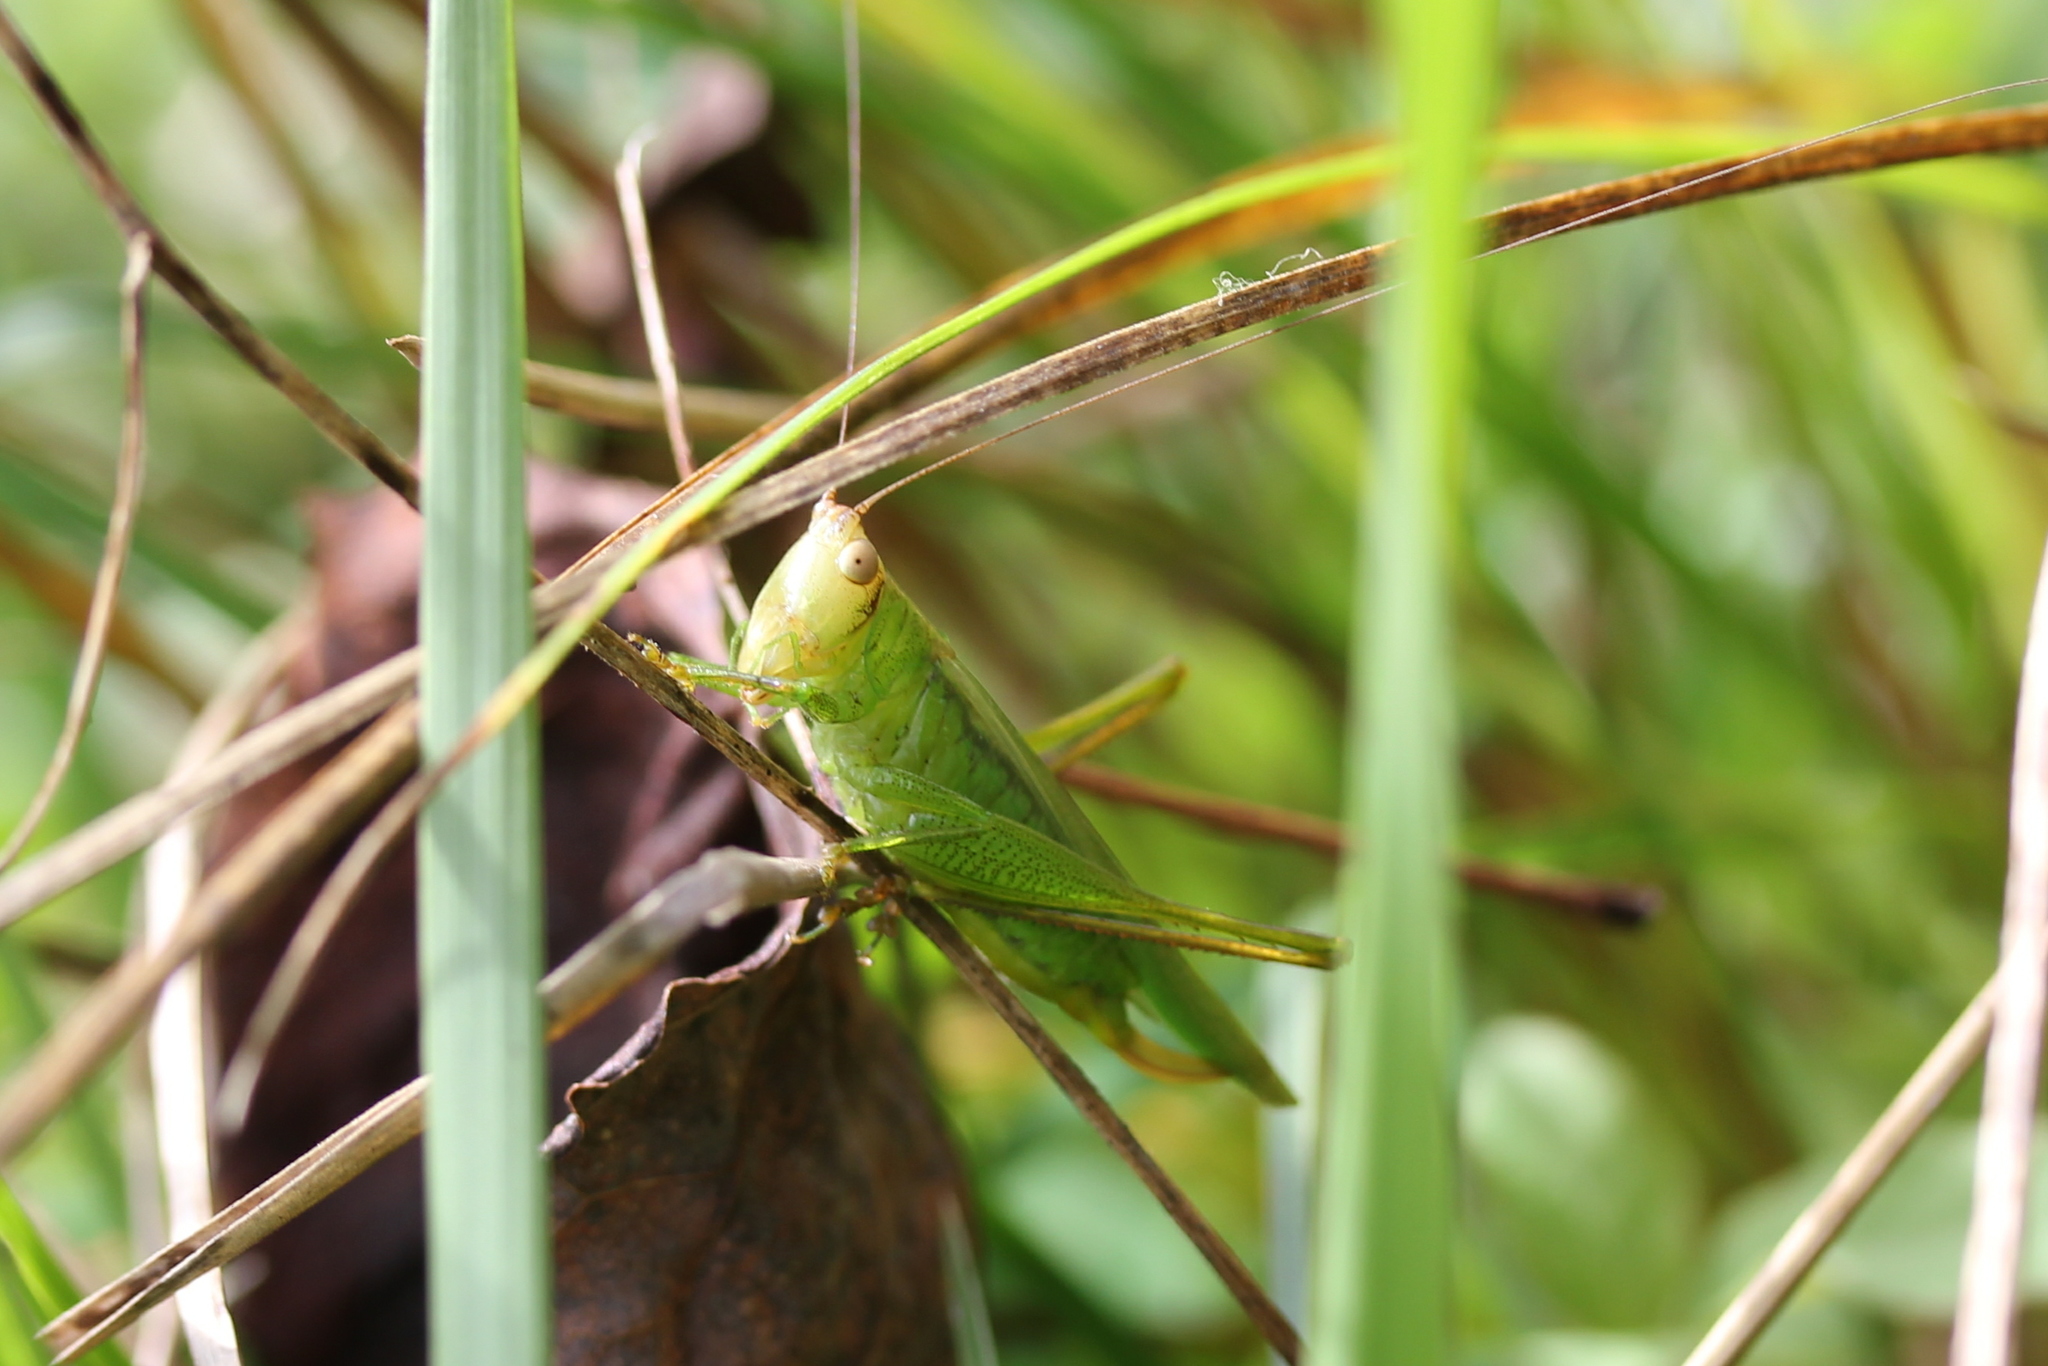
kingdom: Animalia
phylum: Arthropoda
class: Insecta
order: Orthoptera
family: Tettigoniidae
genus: Orchelimum
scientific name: Orchelimum agilis
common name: Agile meadow grasshopper
